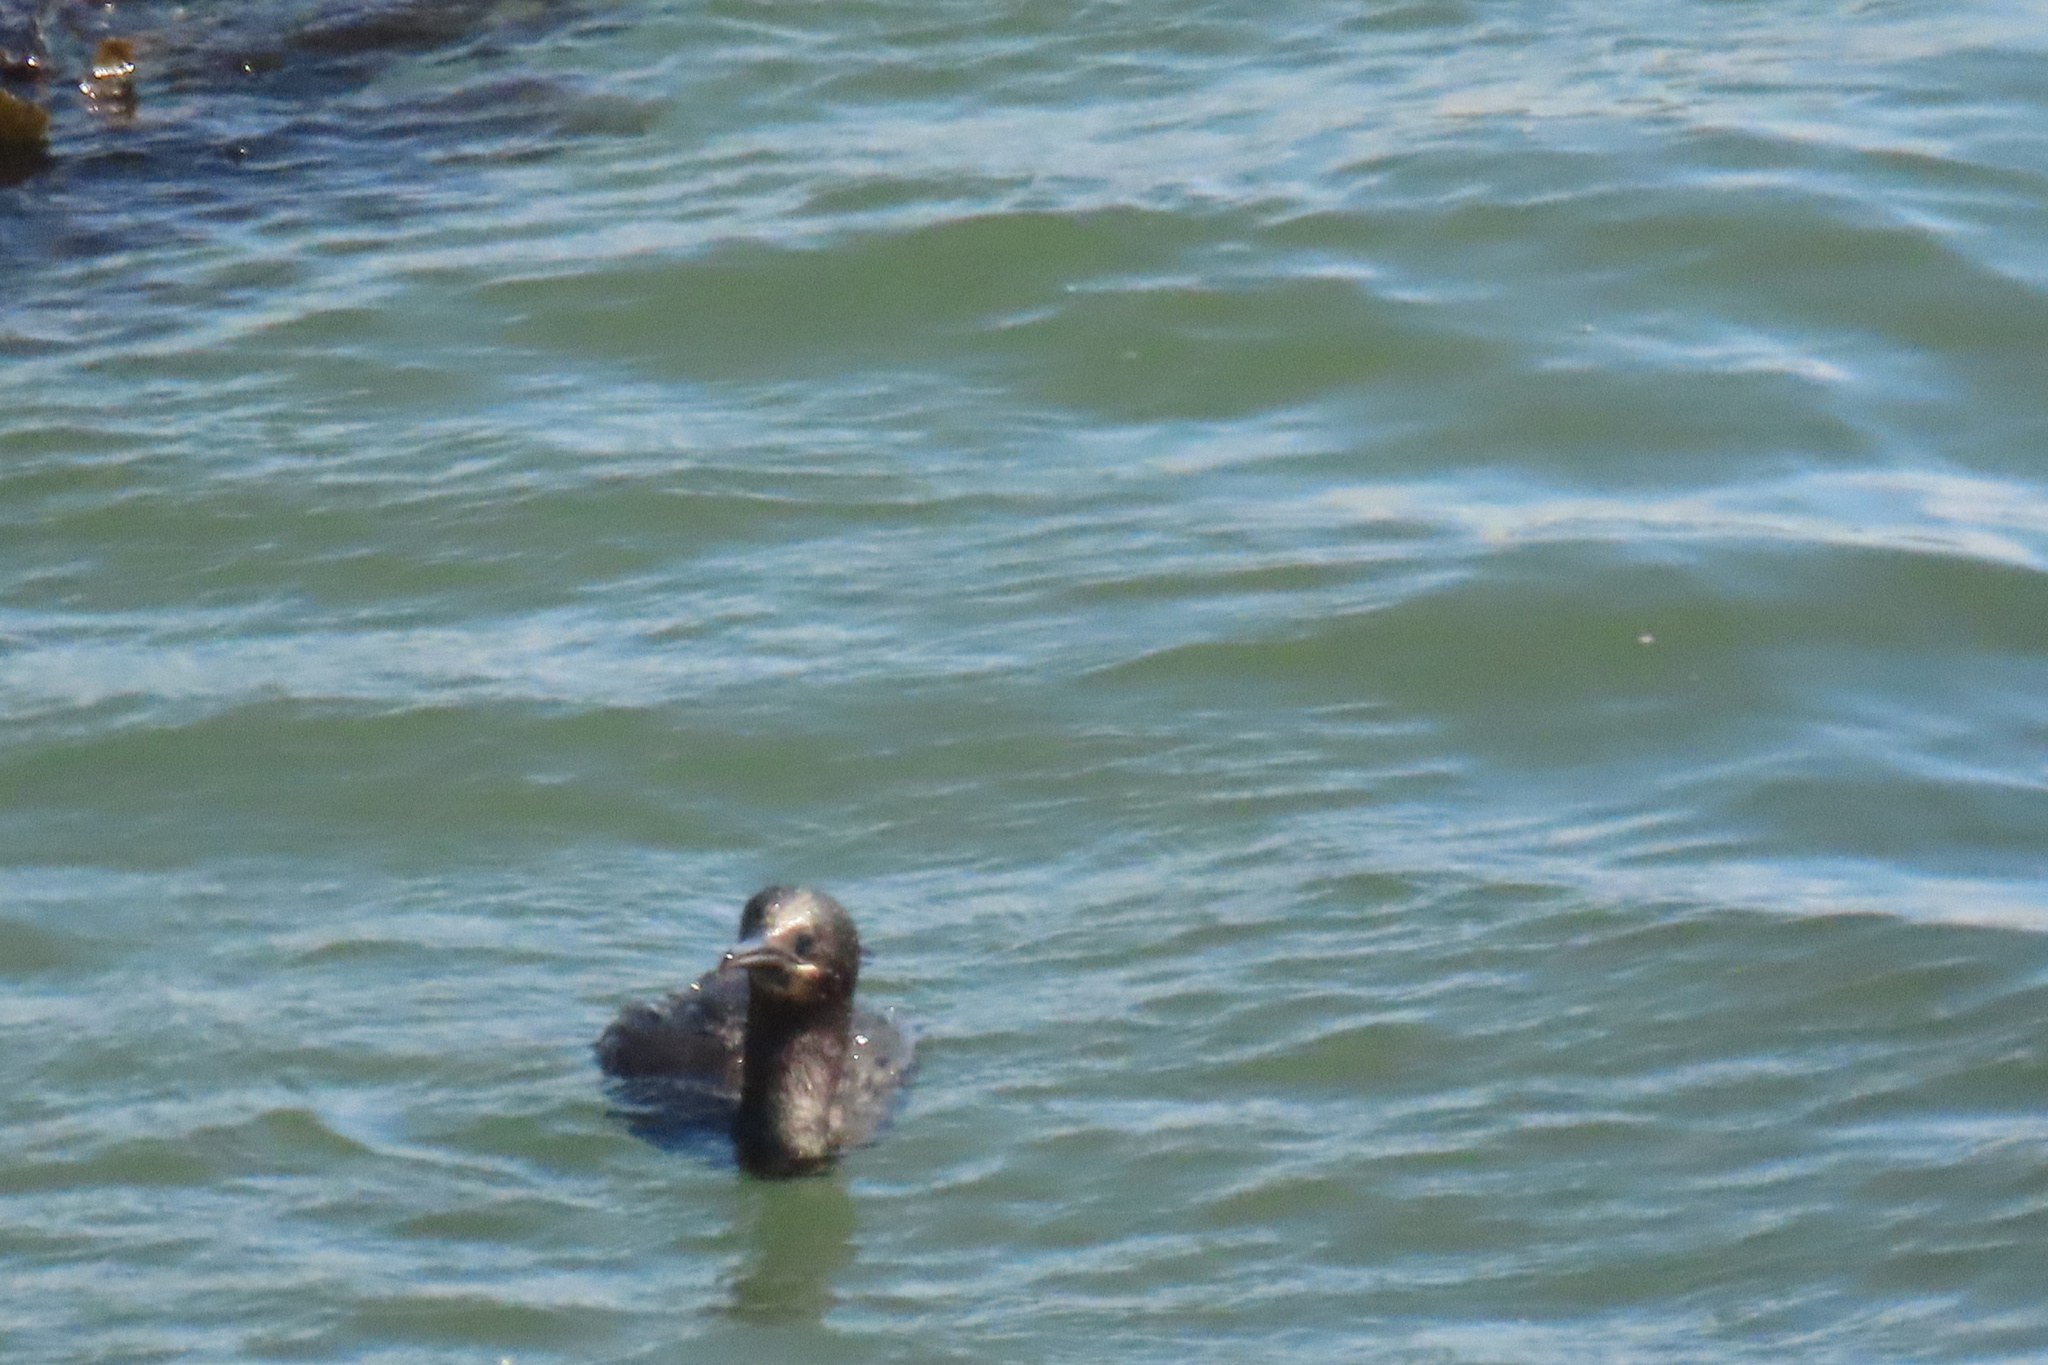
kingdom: Animalia
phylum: Chordata
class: Aves
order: Suliformes
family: Phalacrocoracidae
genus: Urile
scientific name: Urile penicillatus
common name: Brandt's cormorant
